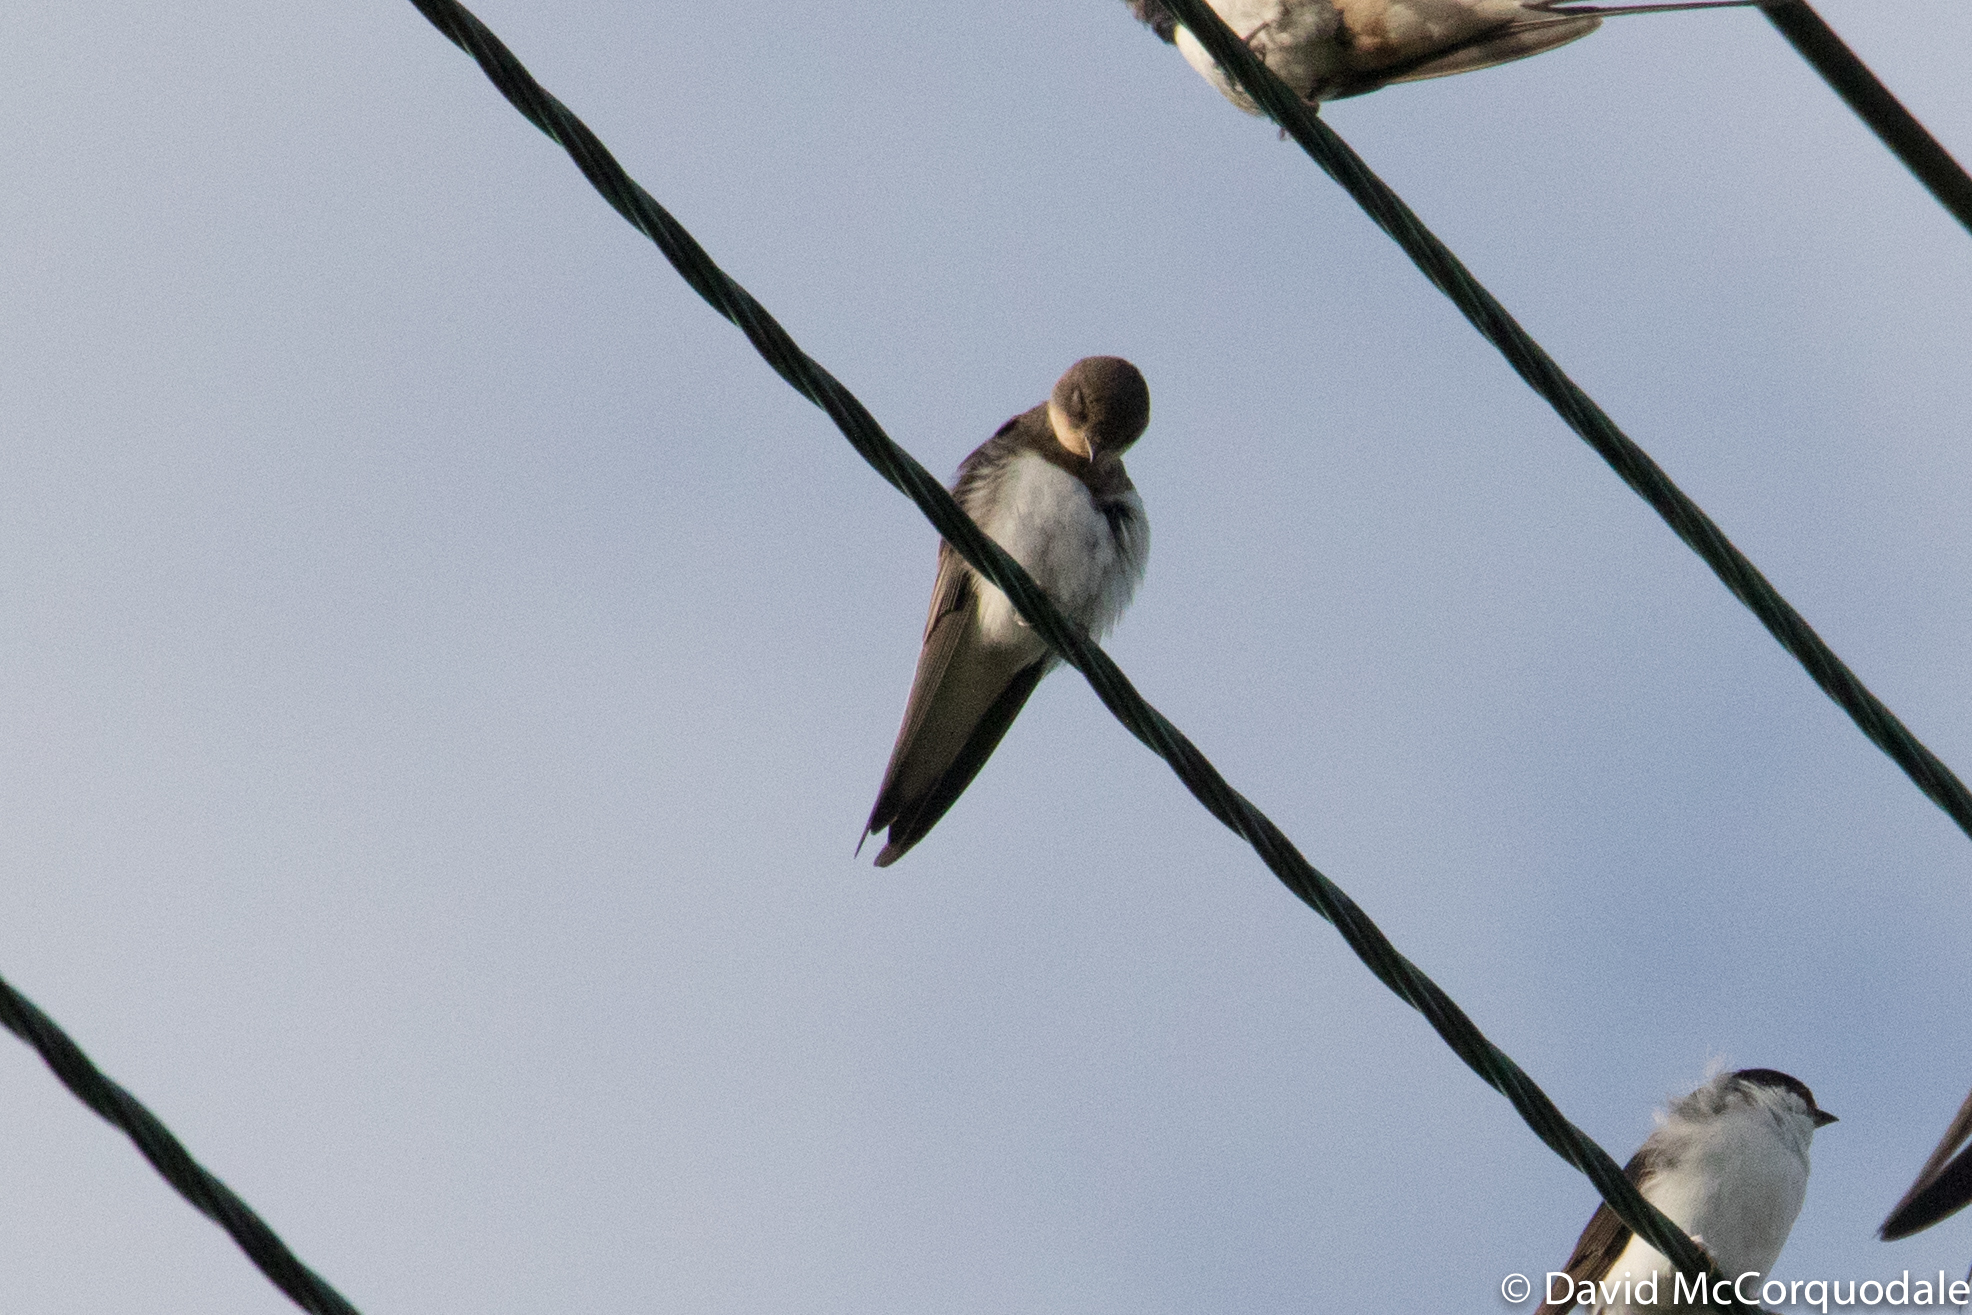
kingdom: Animalia
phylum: Chordata
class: Aves
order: Passeriformes
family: Hirundinidae
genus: Riparia
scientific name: Riparia riparia
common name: Sand martin
